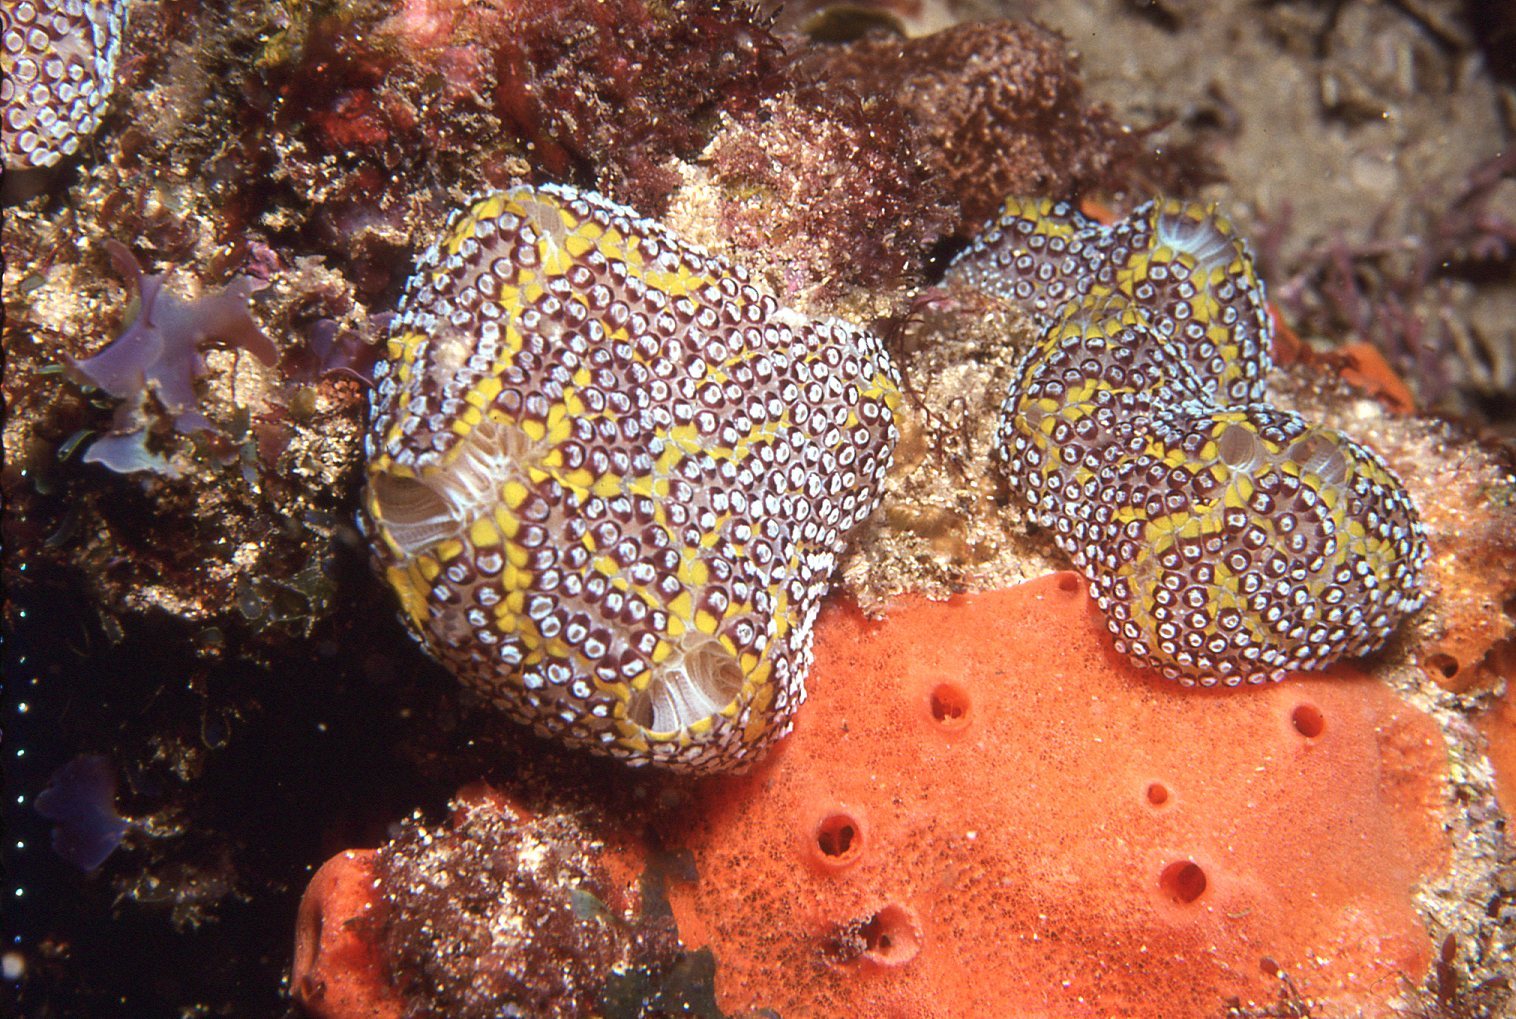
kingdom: Animalia
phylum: Chordata
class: Ascidiacea
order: Stolidobranchia
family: Styelidae
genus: Botrylloides
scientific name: Botrylloides magnicoecus
